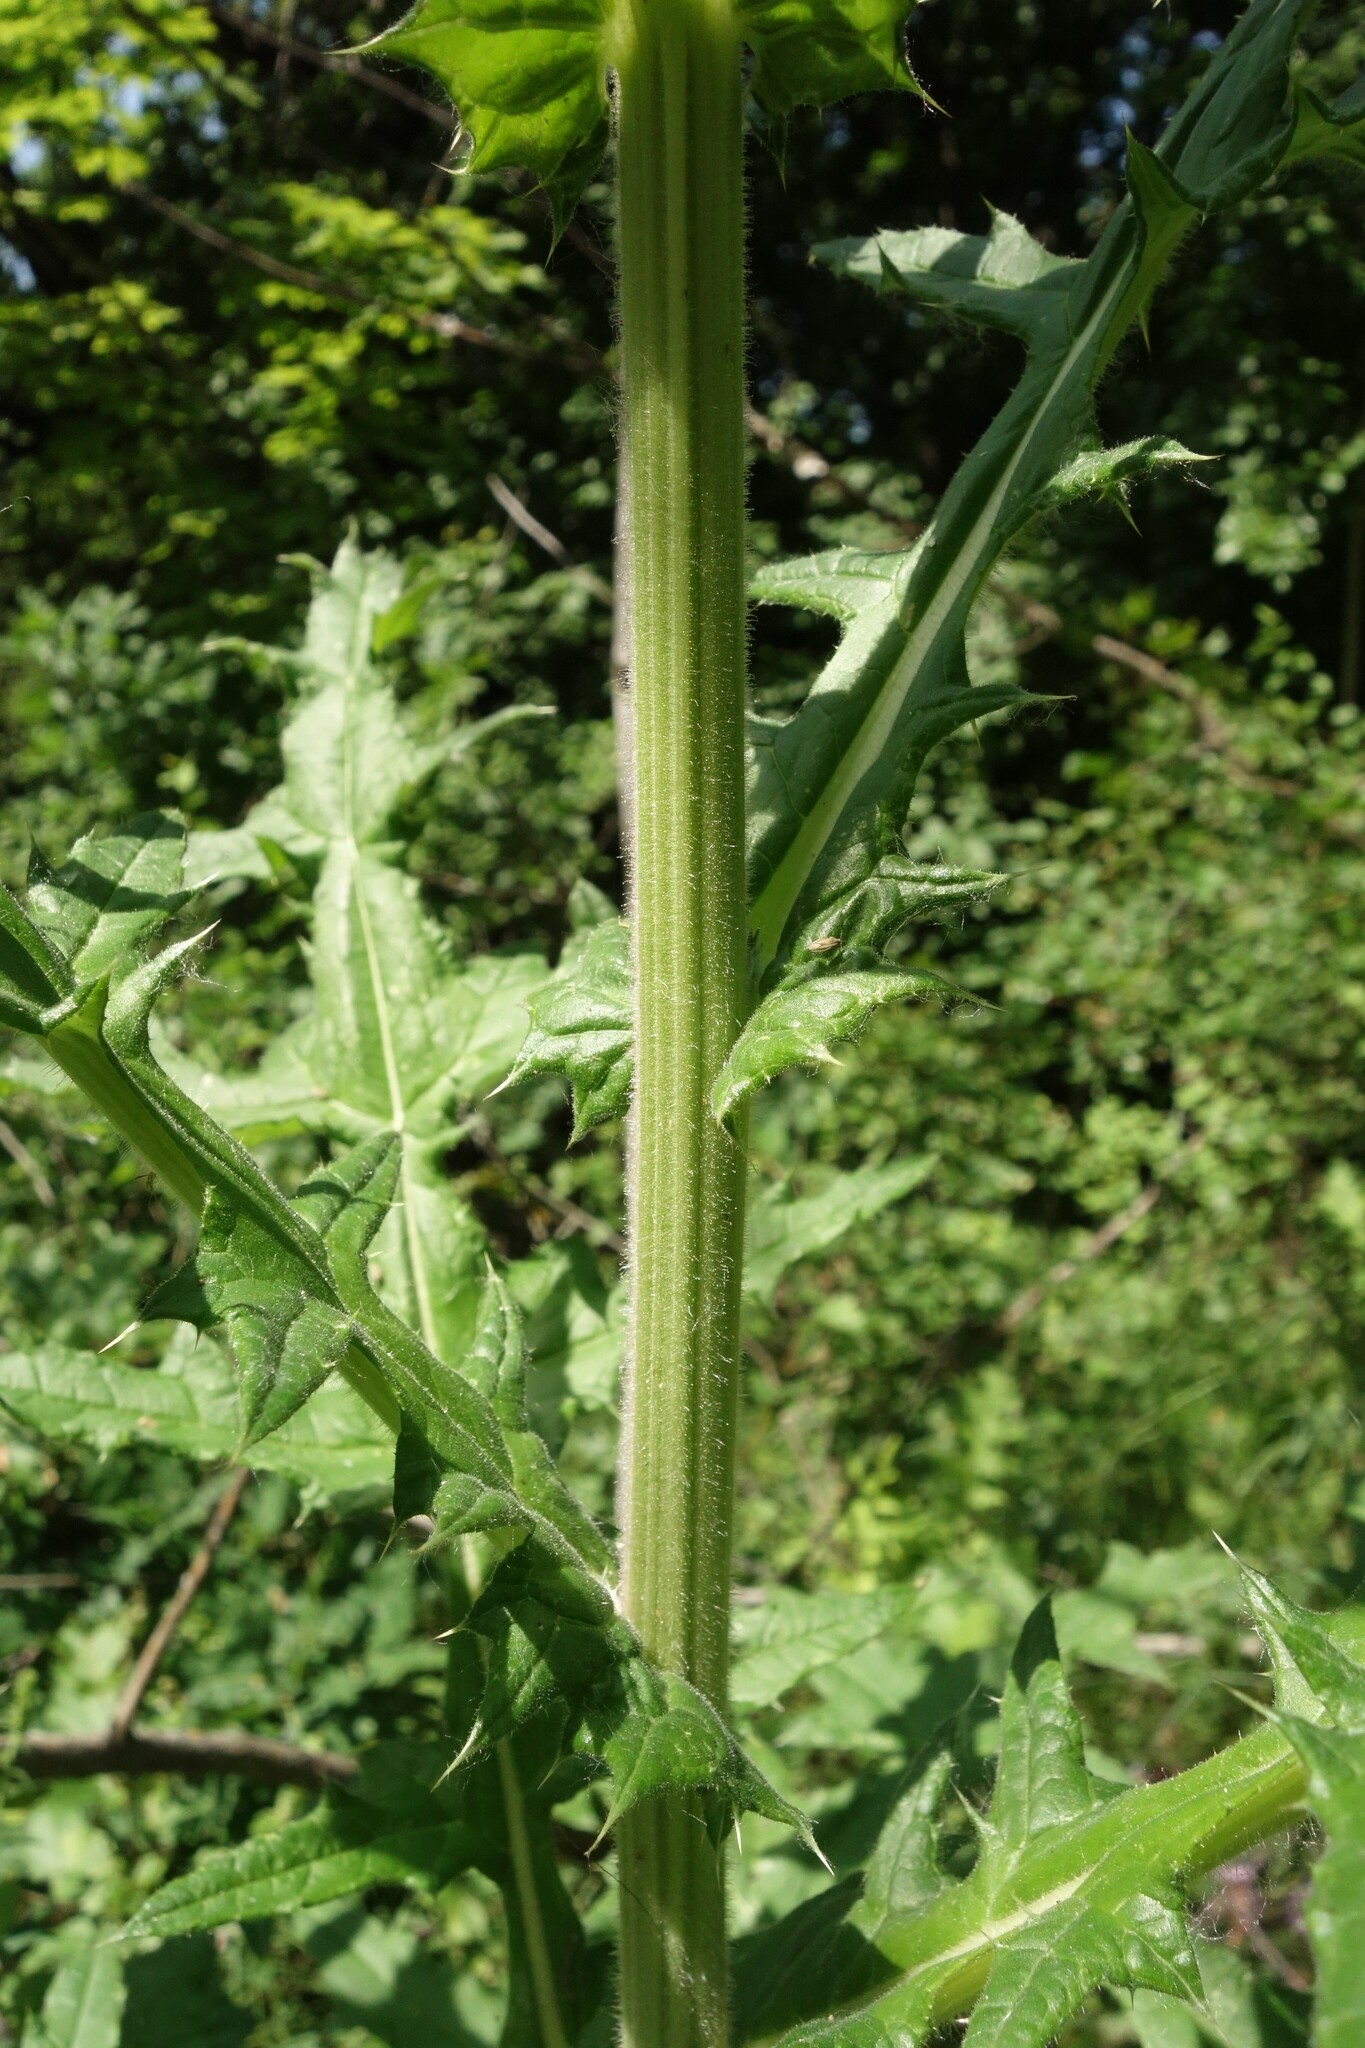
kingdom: Plantae
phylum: Tracheophyta
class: Magnoliopsida
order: Asterales
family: Asteraceae
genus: Echinops
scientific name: Echinops sphaerocephalus
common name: Glandular globe-thistle
